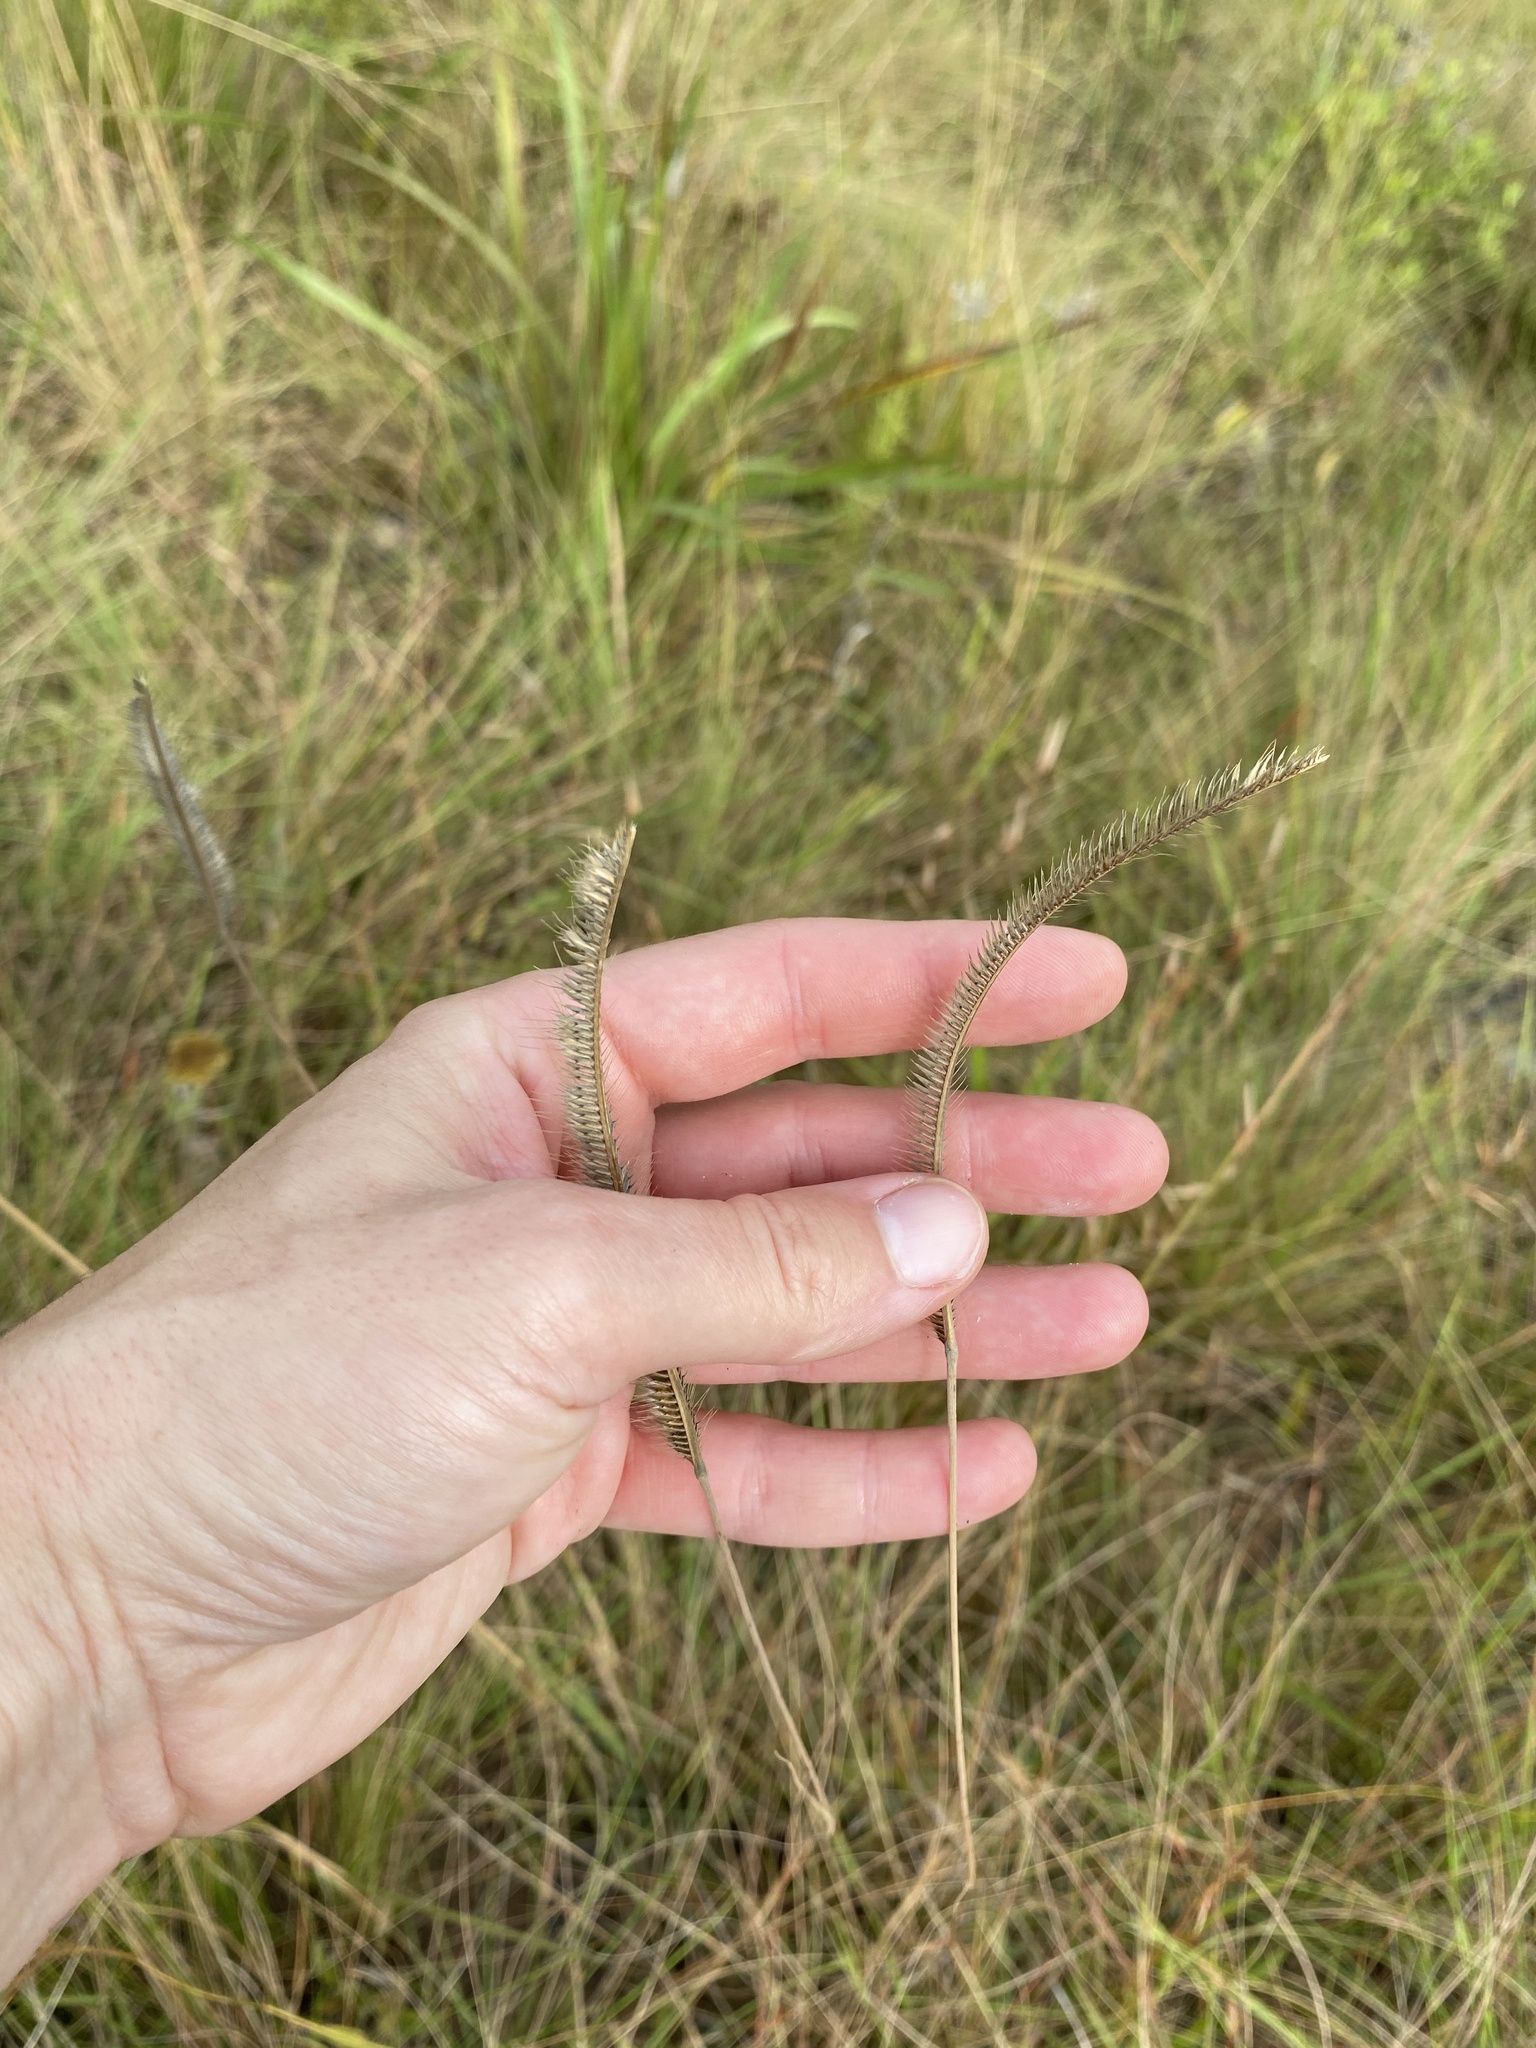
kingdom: Plantae
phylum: Tracheophyta
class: Liliopsida
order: Poales
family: Poaceae
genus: Ctenium
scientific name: Ctenium concinnum
